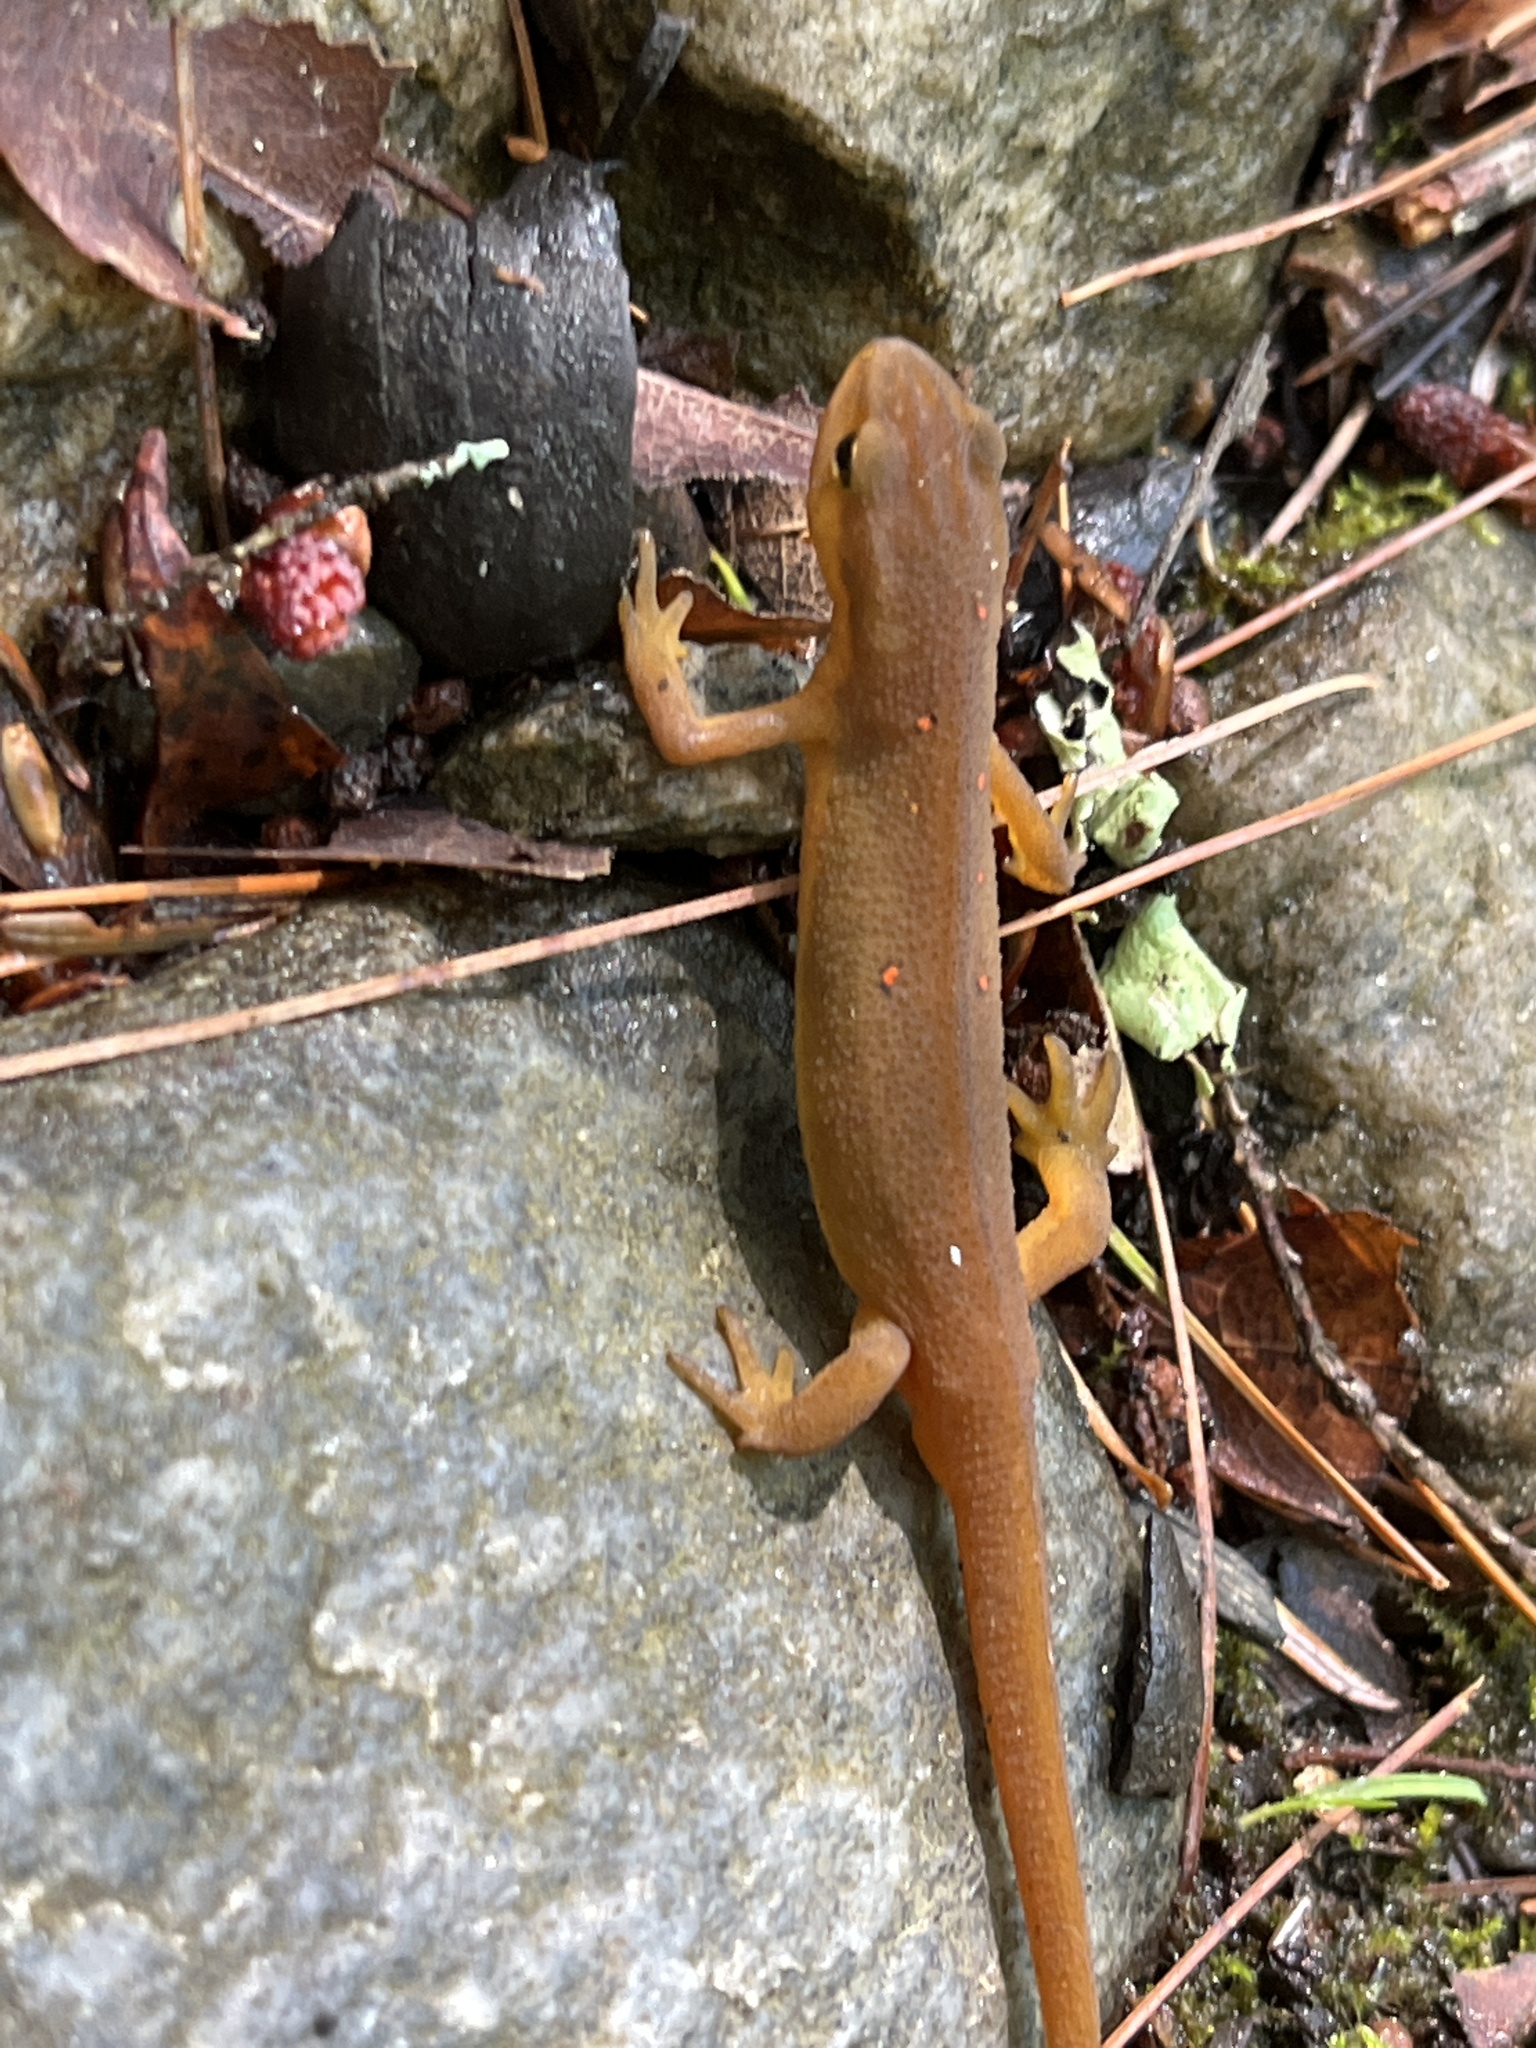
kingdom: Animalia
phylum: Chordata
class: Amphibia
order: Caudata
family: Salamandridae
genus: Notophthalmus
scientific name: Notophthalmus viridescens
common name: Eastern newt
